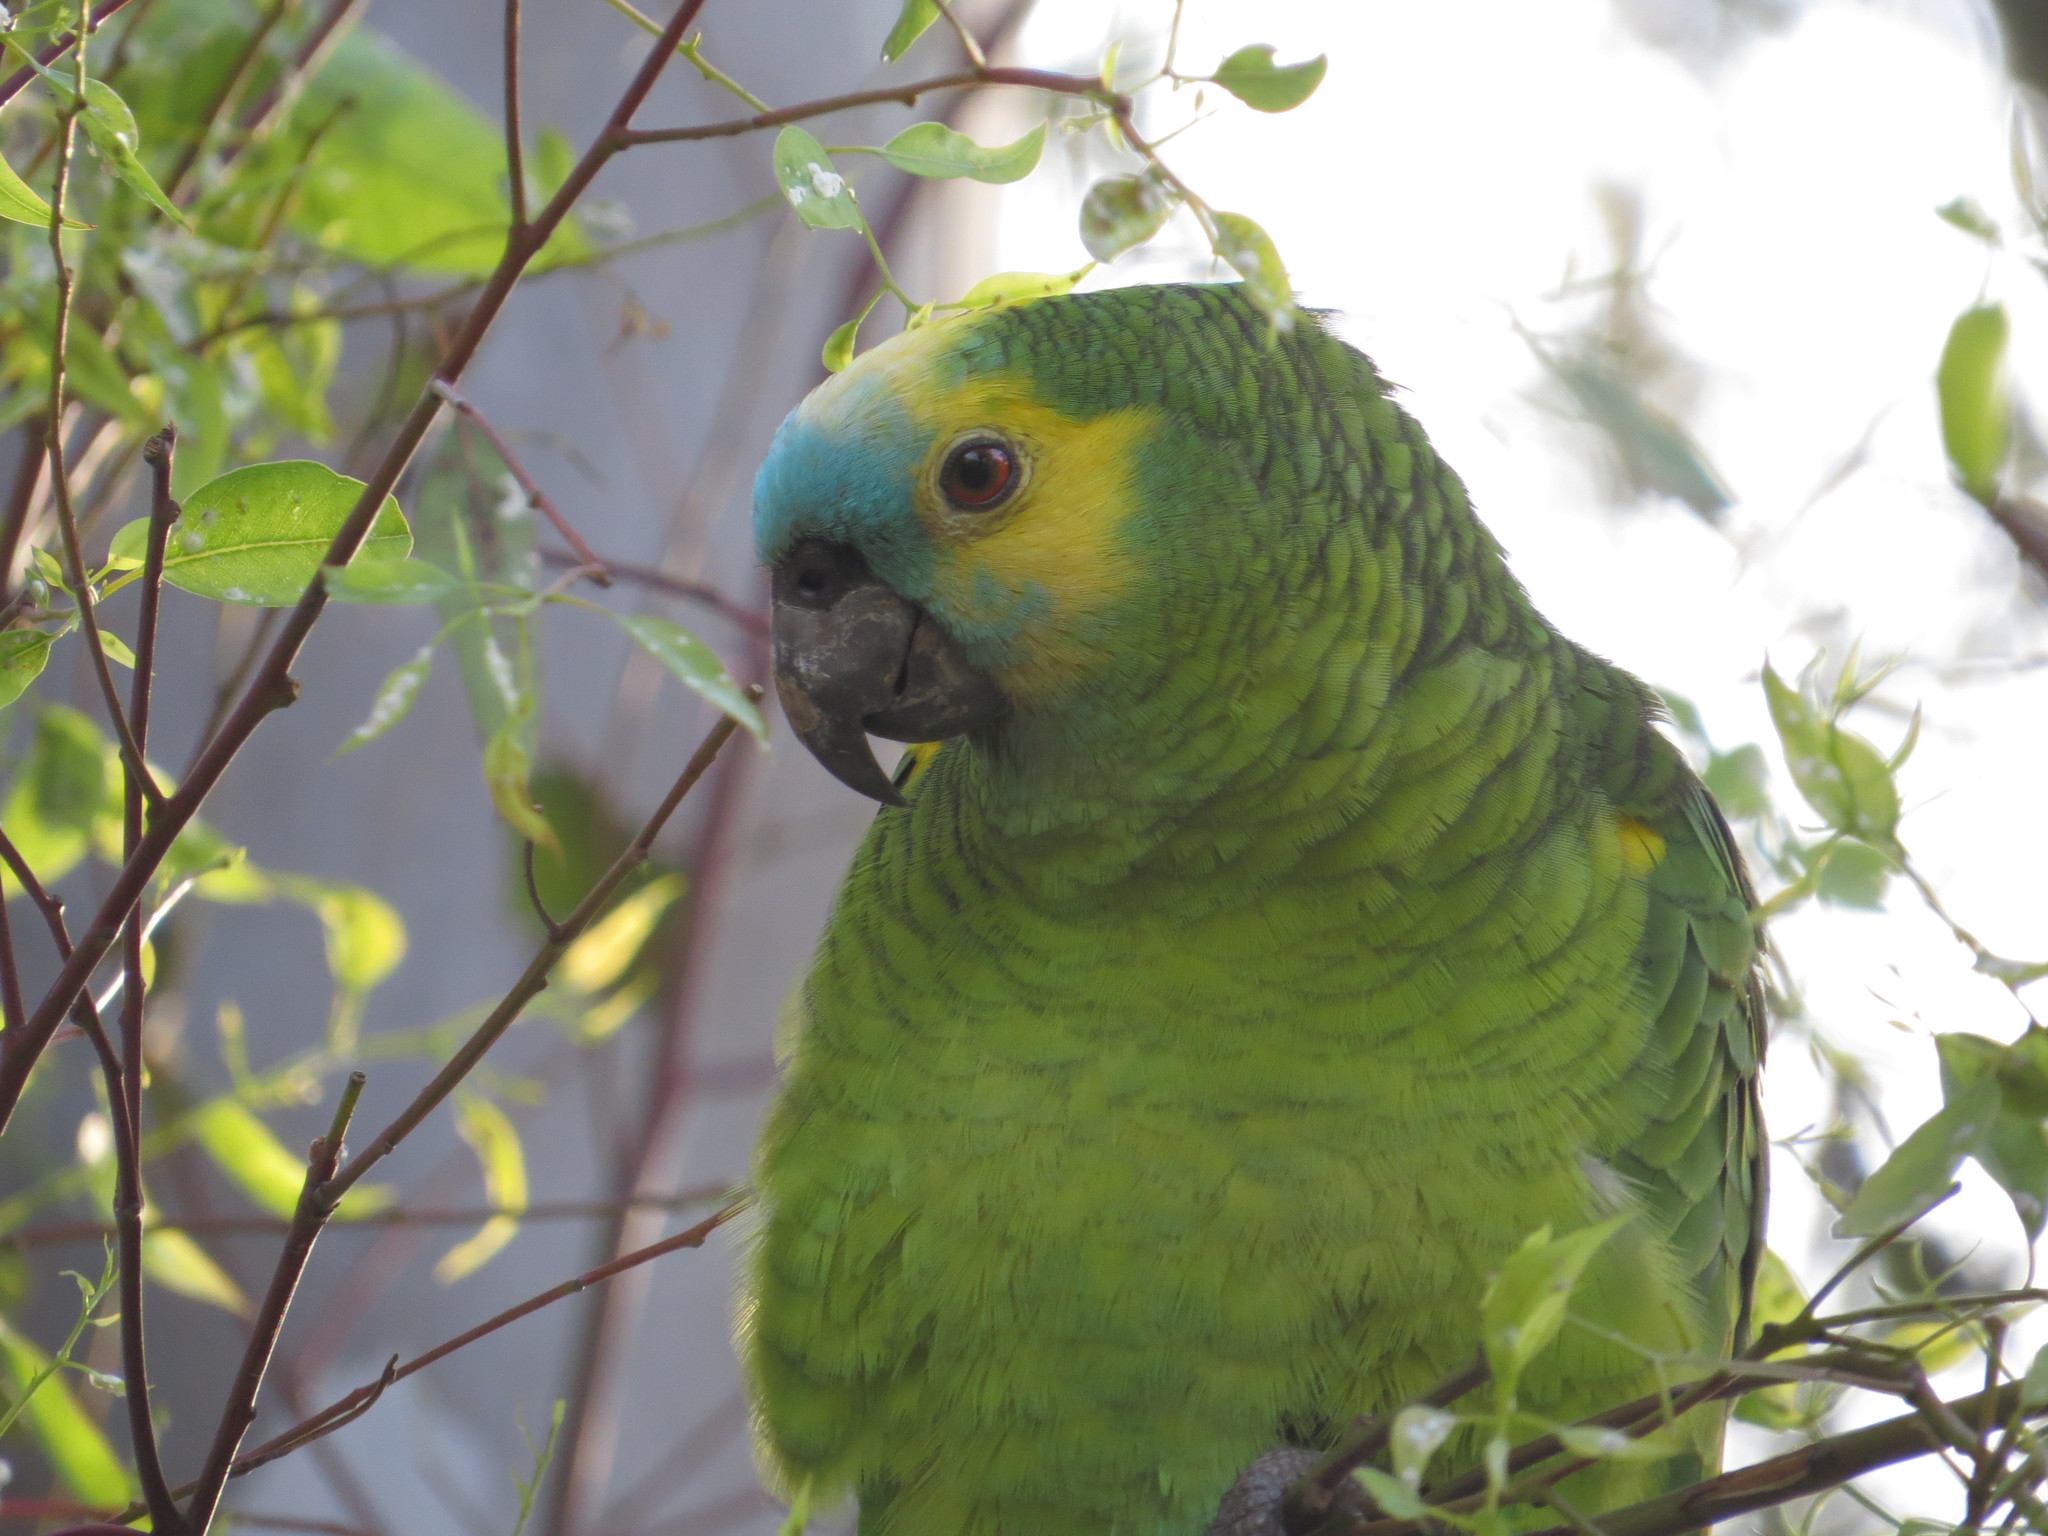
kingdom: Animalia
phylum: Chordata
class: Aves
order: Psittaciformes
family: Psittacidae
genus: Amazona
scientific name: Amazona aestiva
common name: Turquoise-fronted amazon
